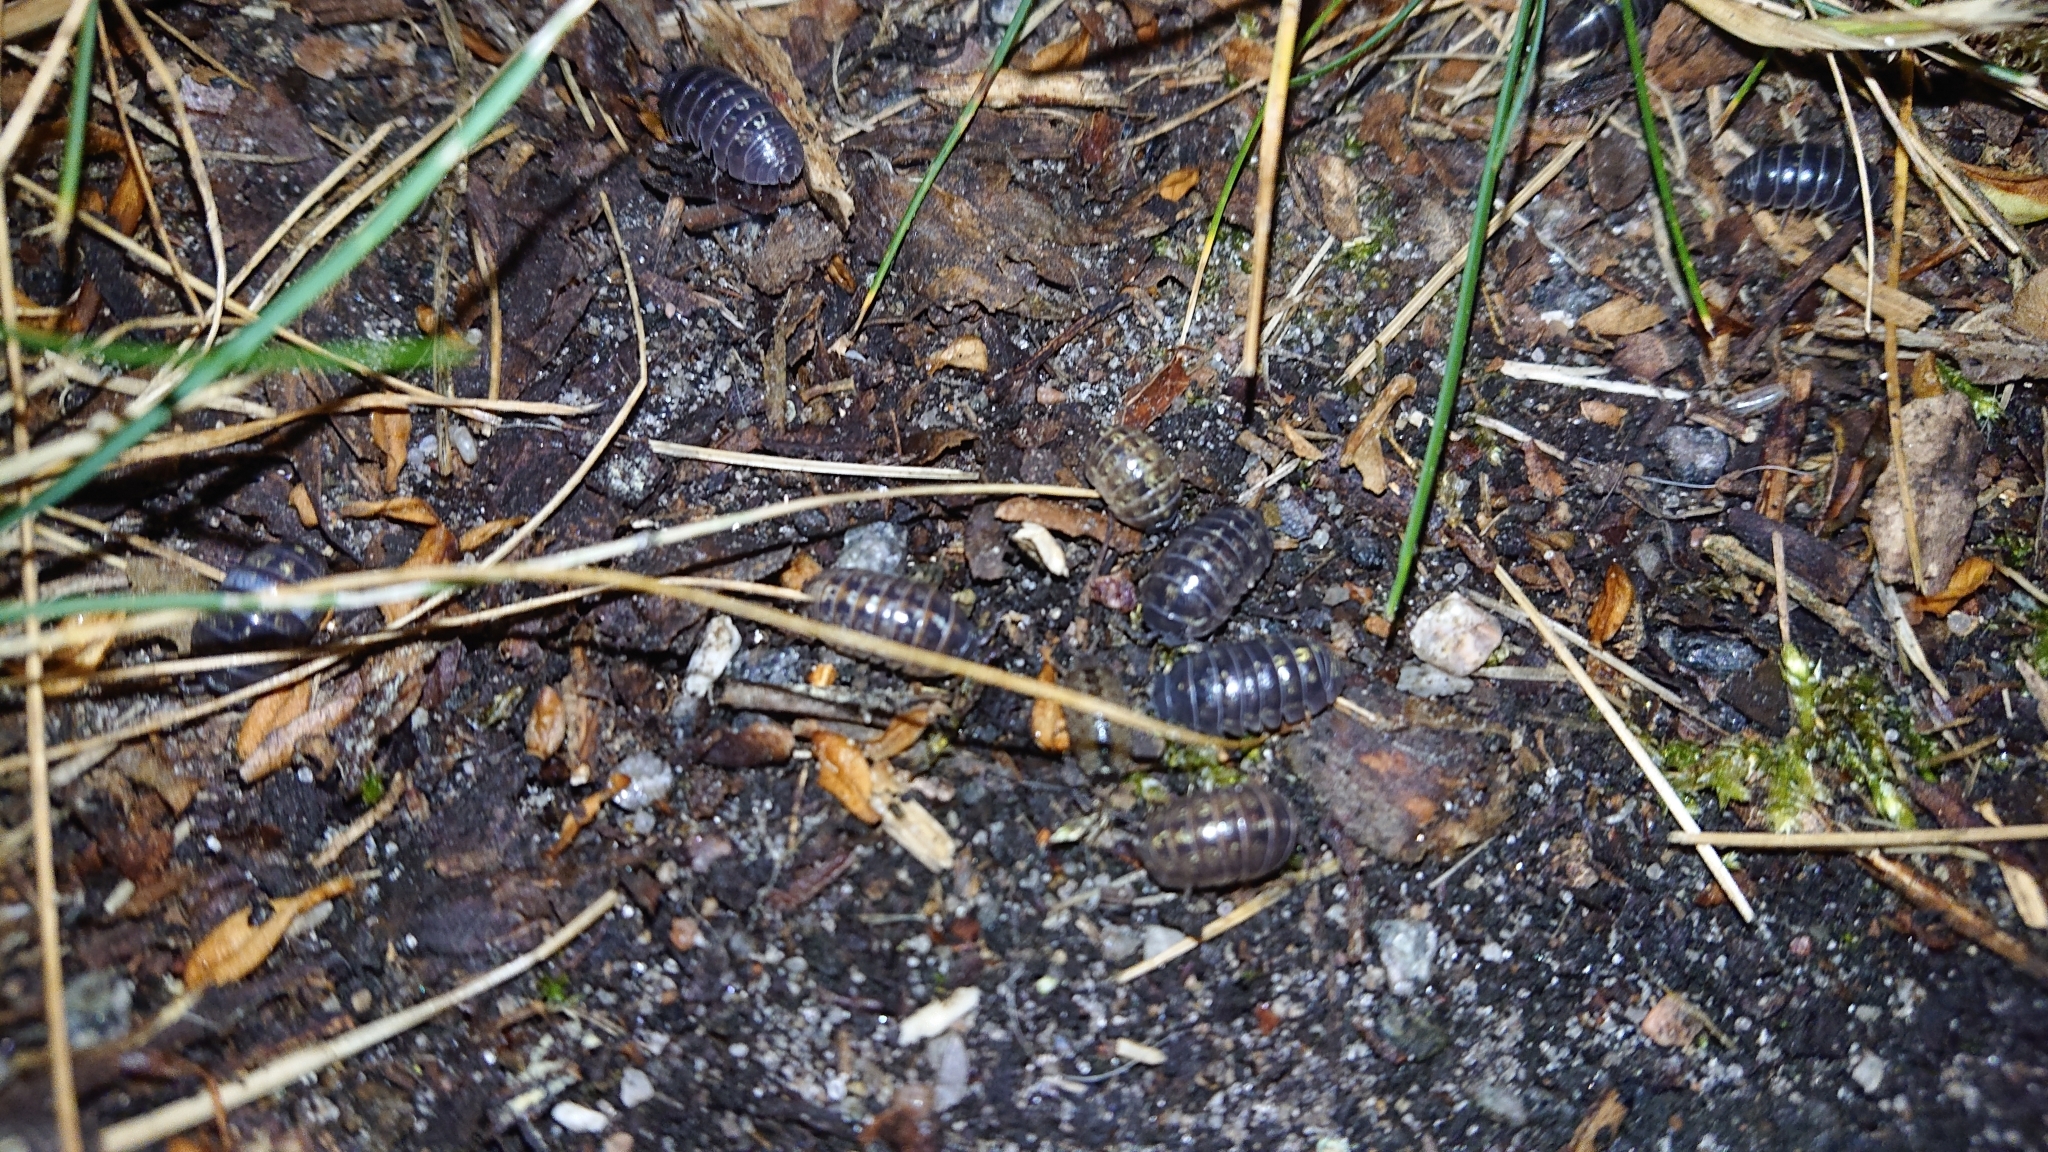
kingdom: Animalia
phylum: Arthropoda
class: Malacostraca
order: Isopoda
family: Armadillidiidae
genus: Armadillidium
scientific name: Armadillidium vulgare
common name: Common pill woodlouse
